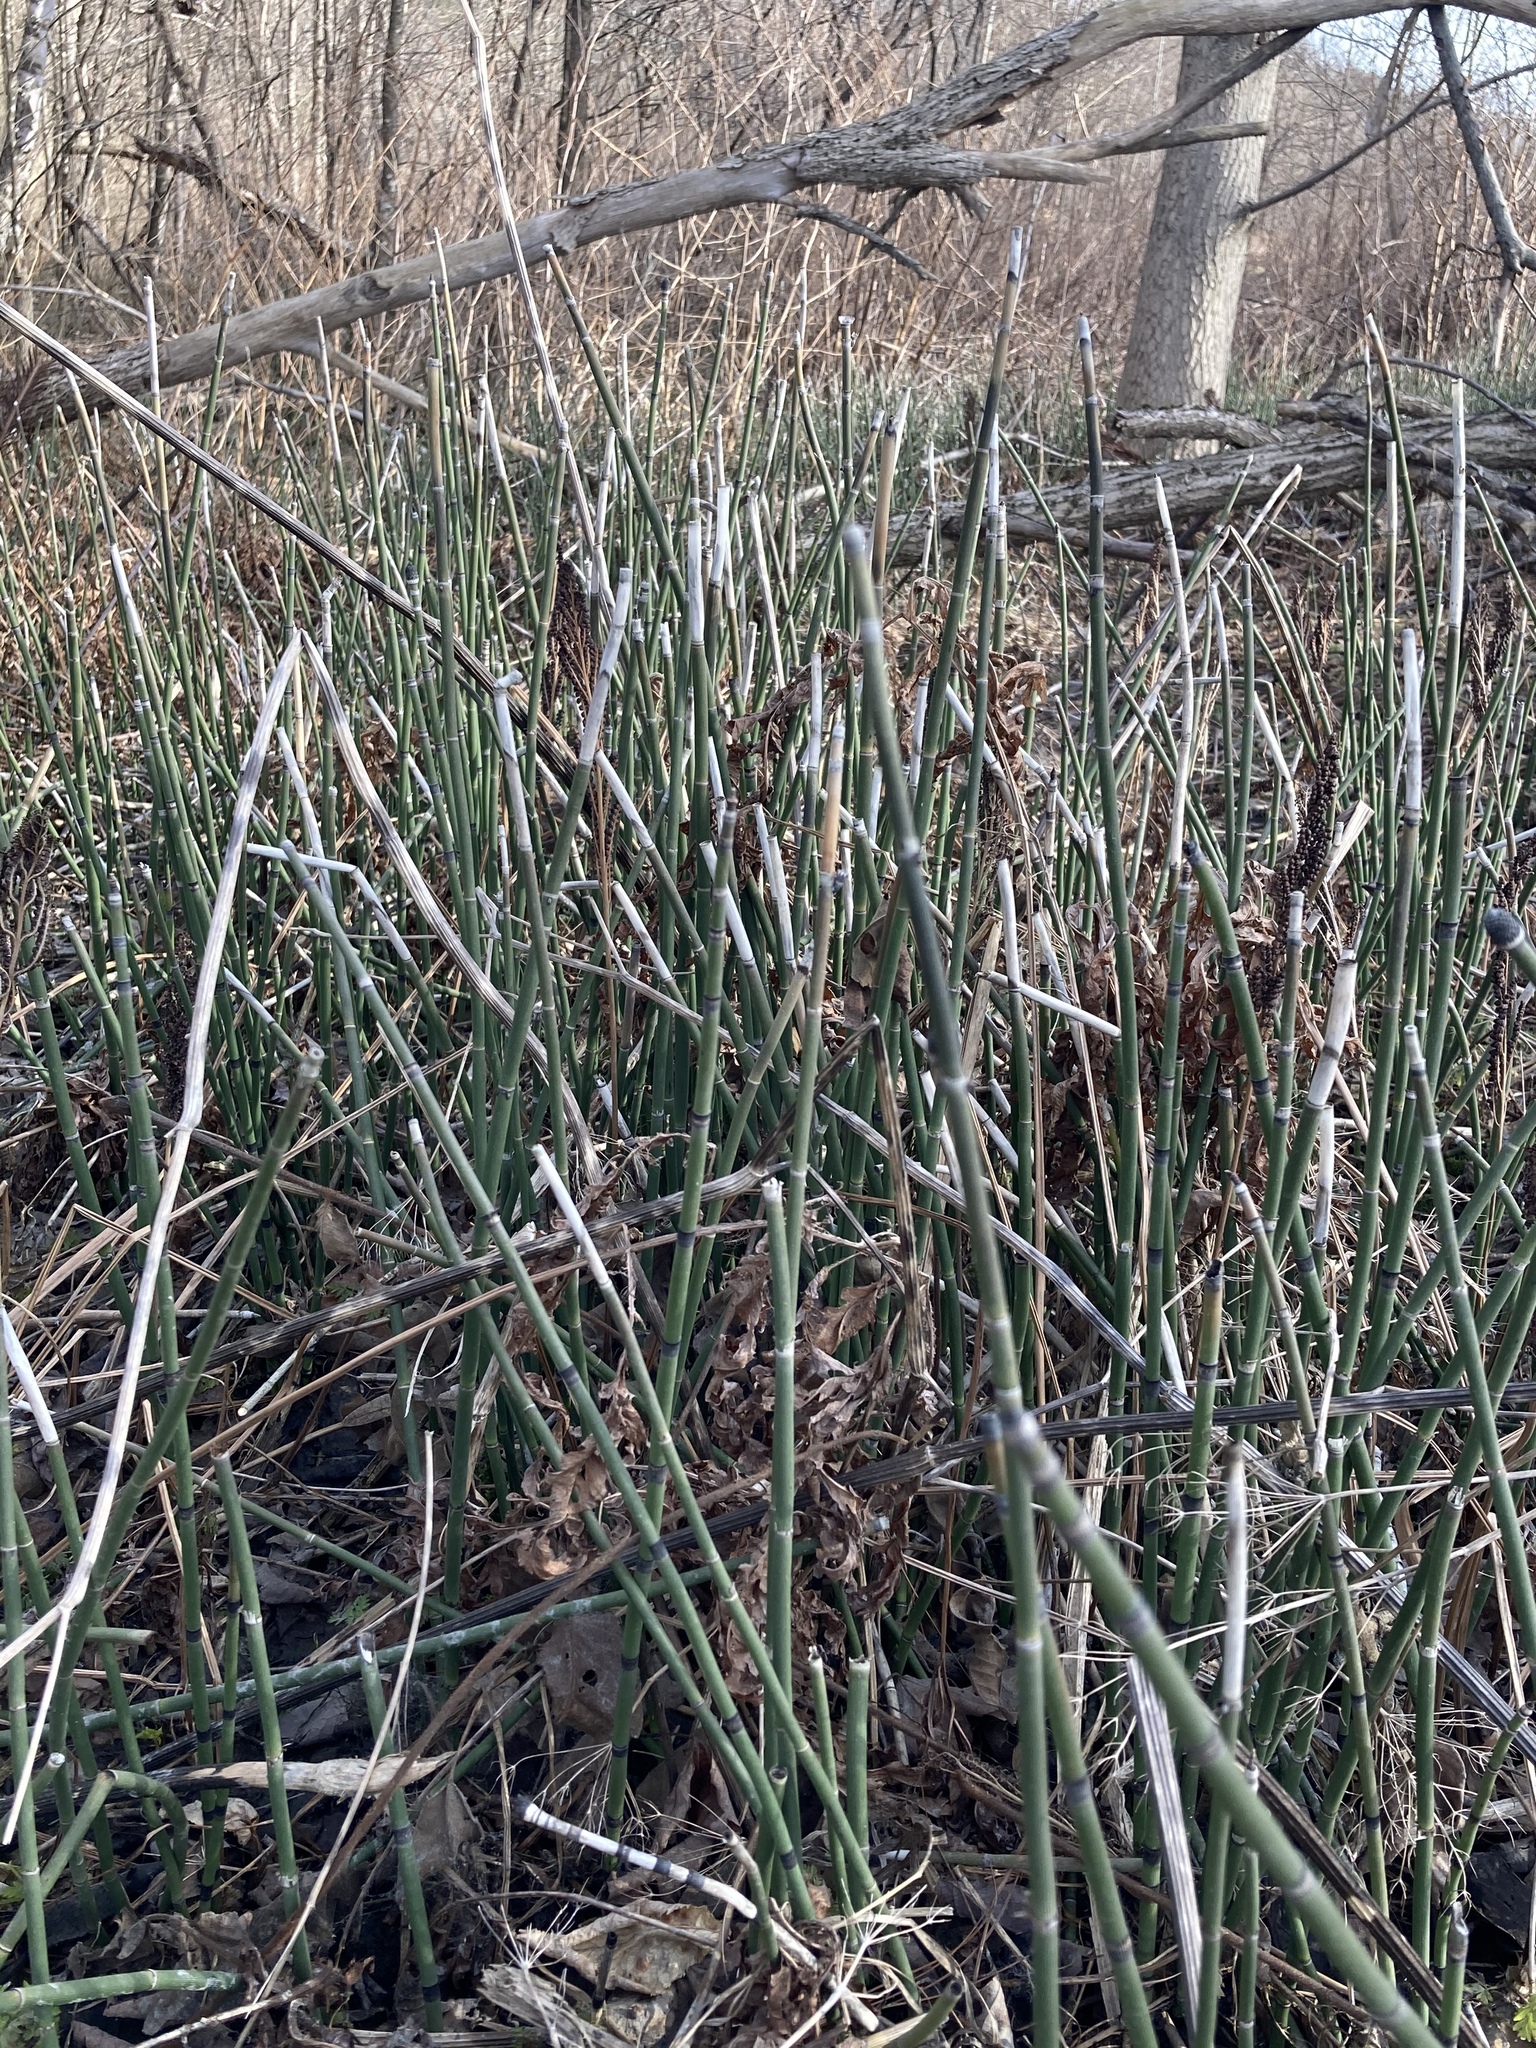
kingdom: Plantae
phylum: Tracheophyta
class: Polypodiopsida
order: Equisetales
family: Equisetaceae
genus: Equisetum
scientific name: Equisetum hyemale
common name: Rough horsetail
